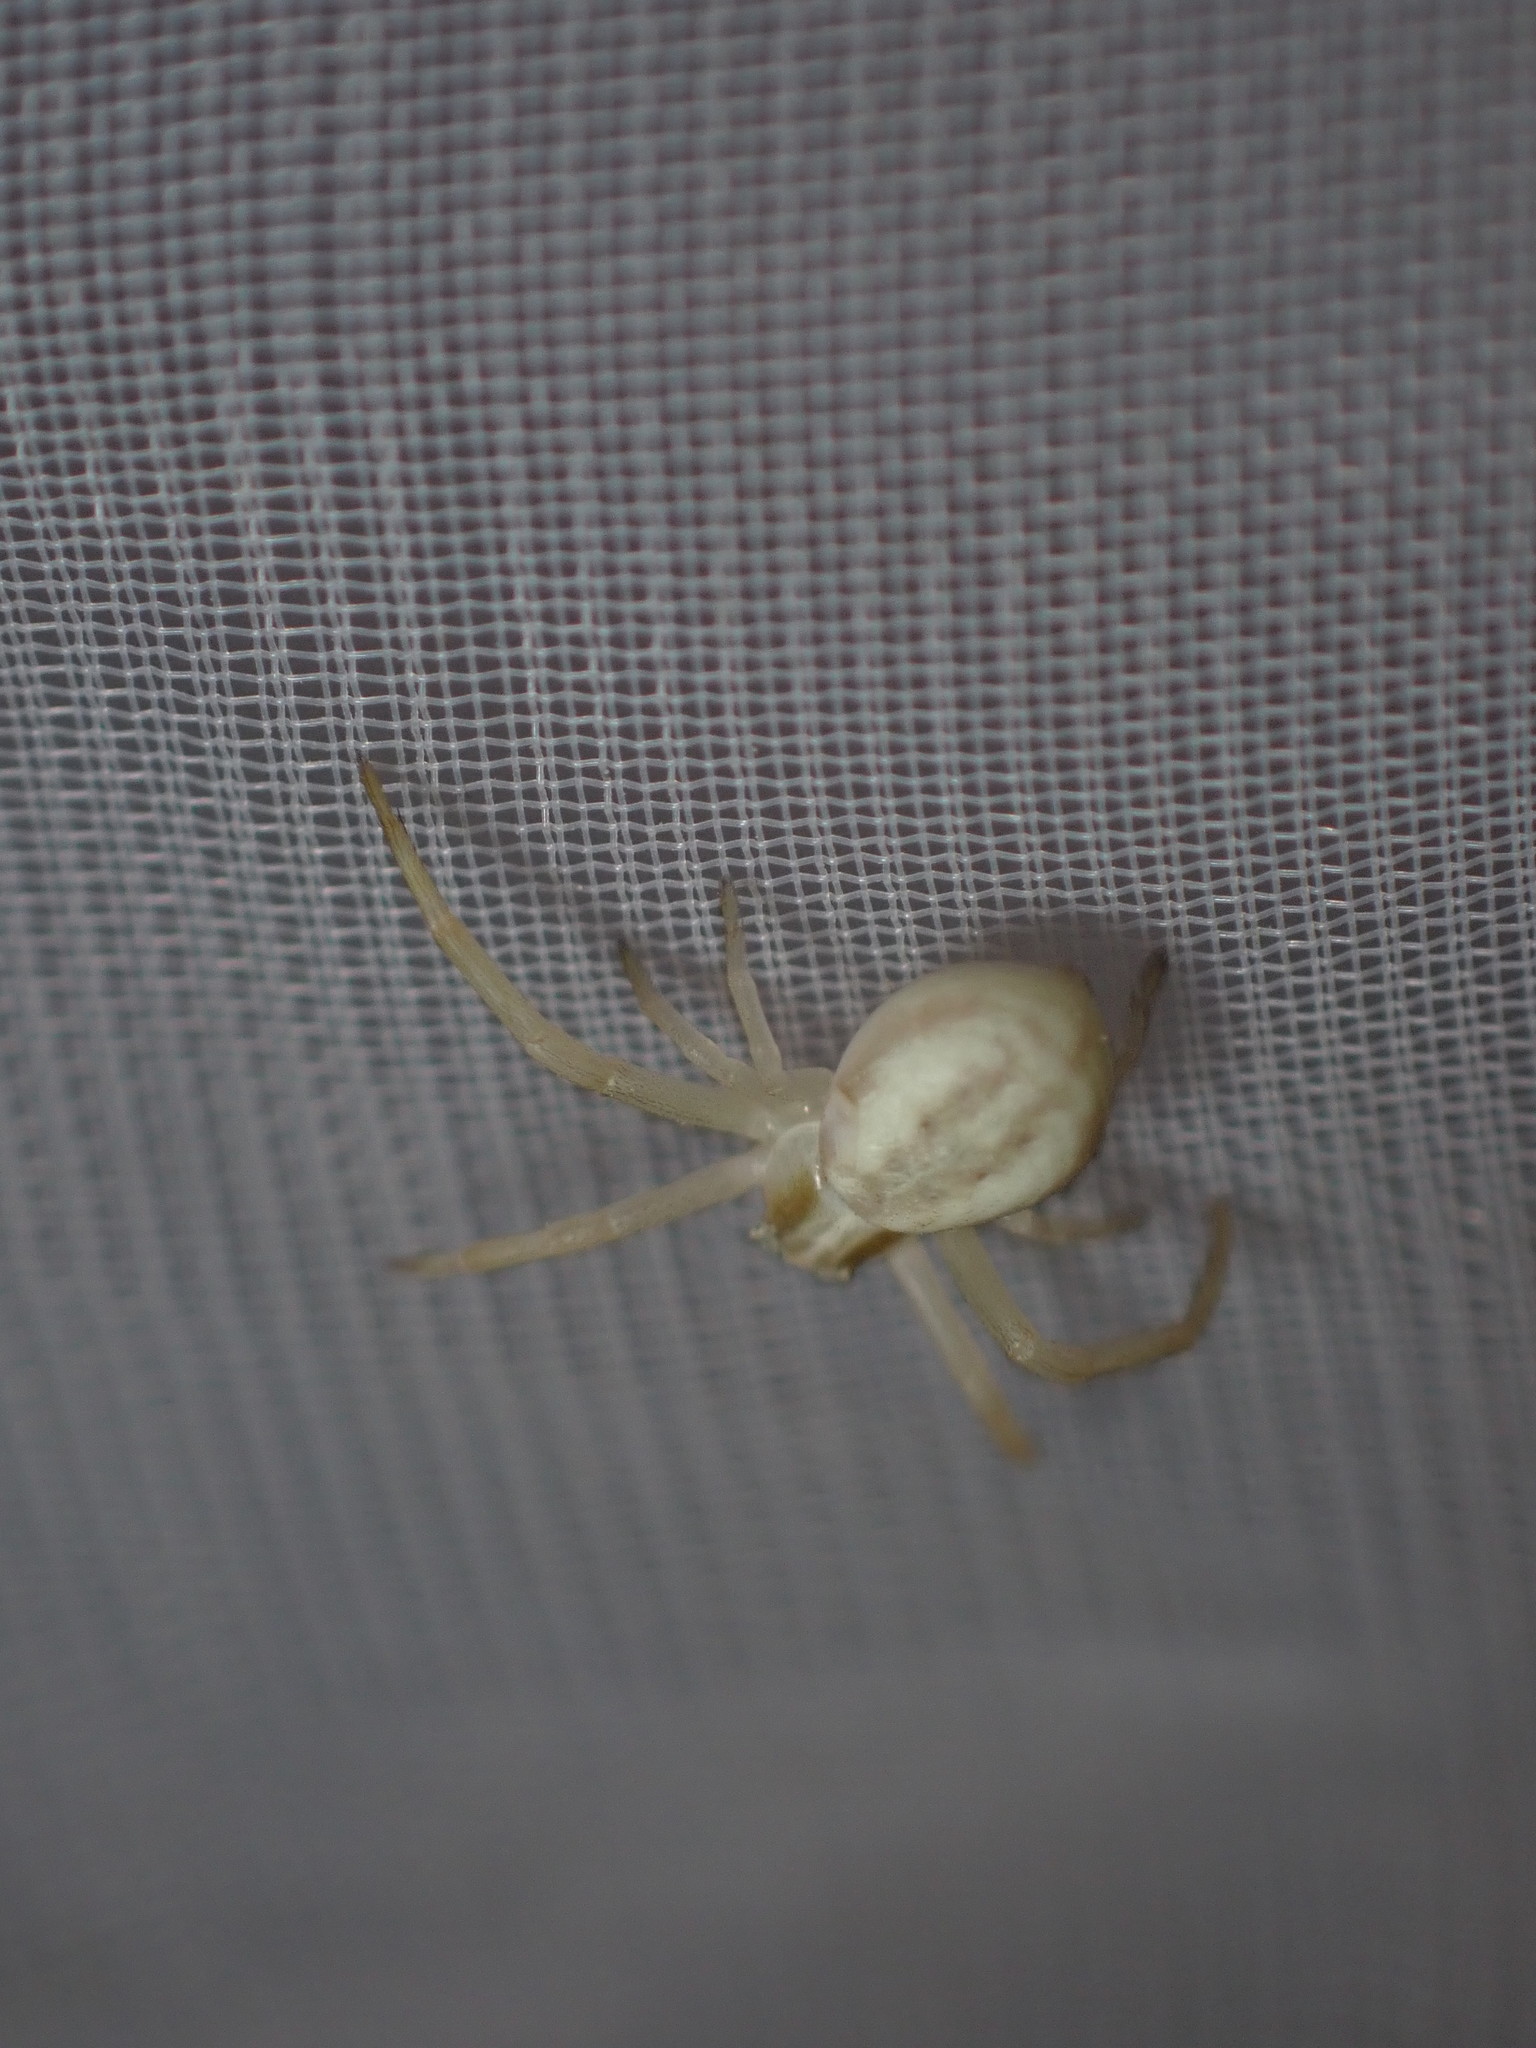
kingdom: Animalia
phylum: Arthropoda
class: Arachnida
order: Araneae
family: Thomisidae
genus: Runcinia
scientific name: Runcinia grammica
